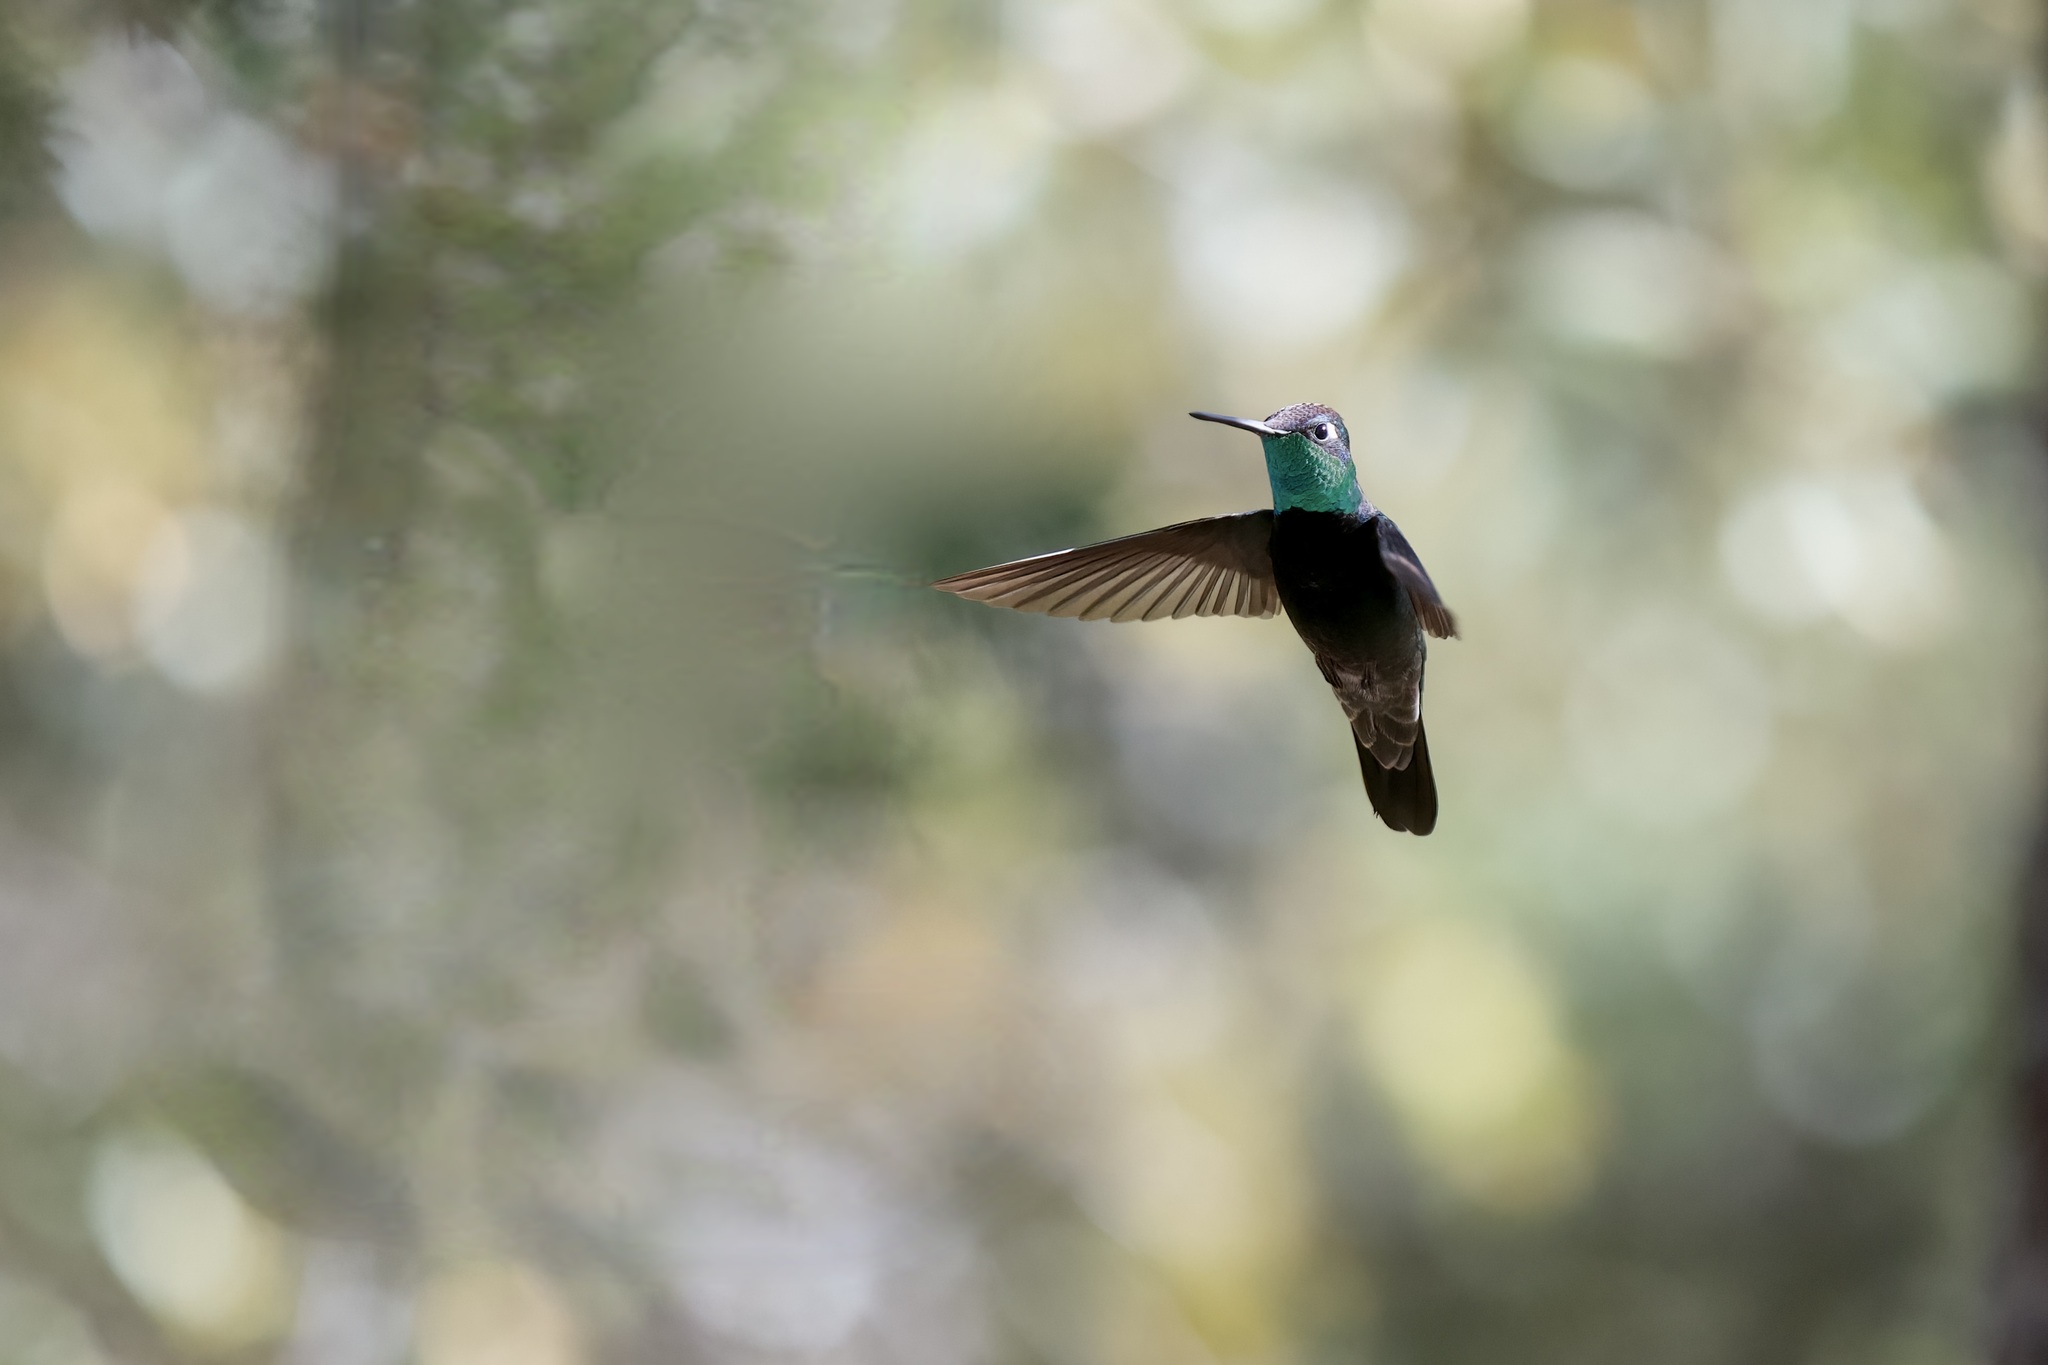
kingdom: Animalia
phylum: Chordata
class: Aves
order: Apodiformes
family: Trochilidae
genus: Eugenes
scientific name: Eugenes fulgens
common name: Magnificent hummingbird
